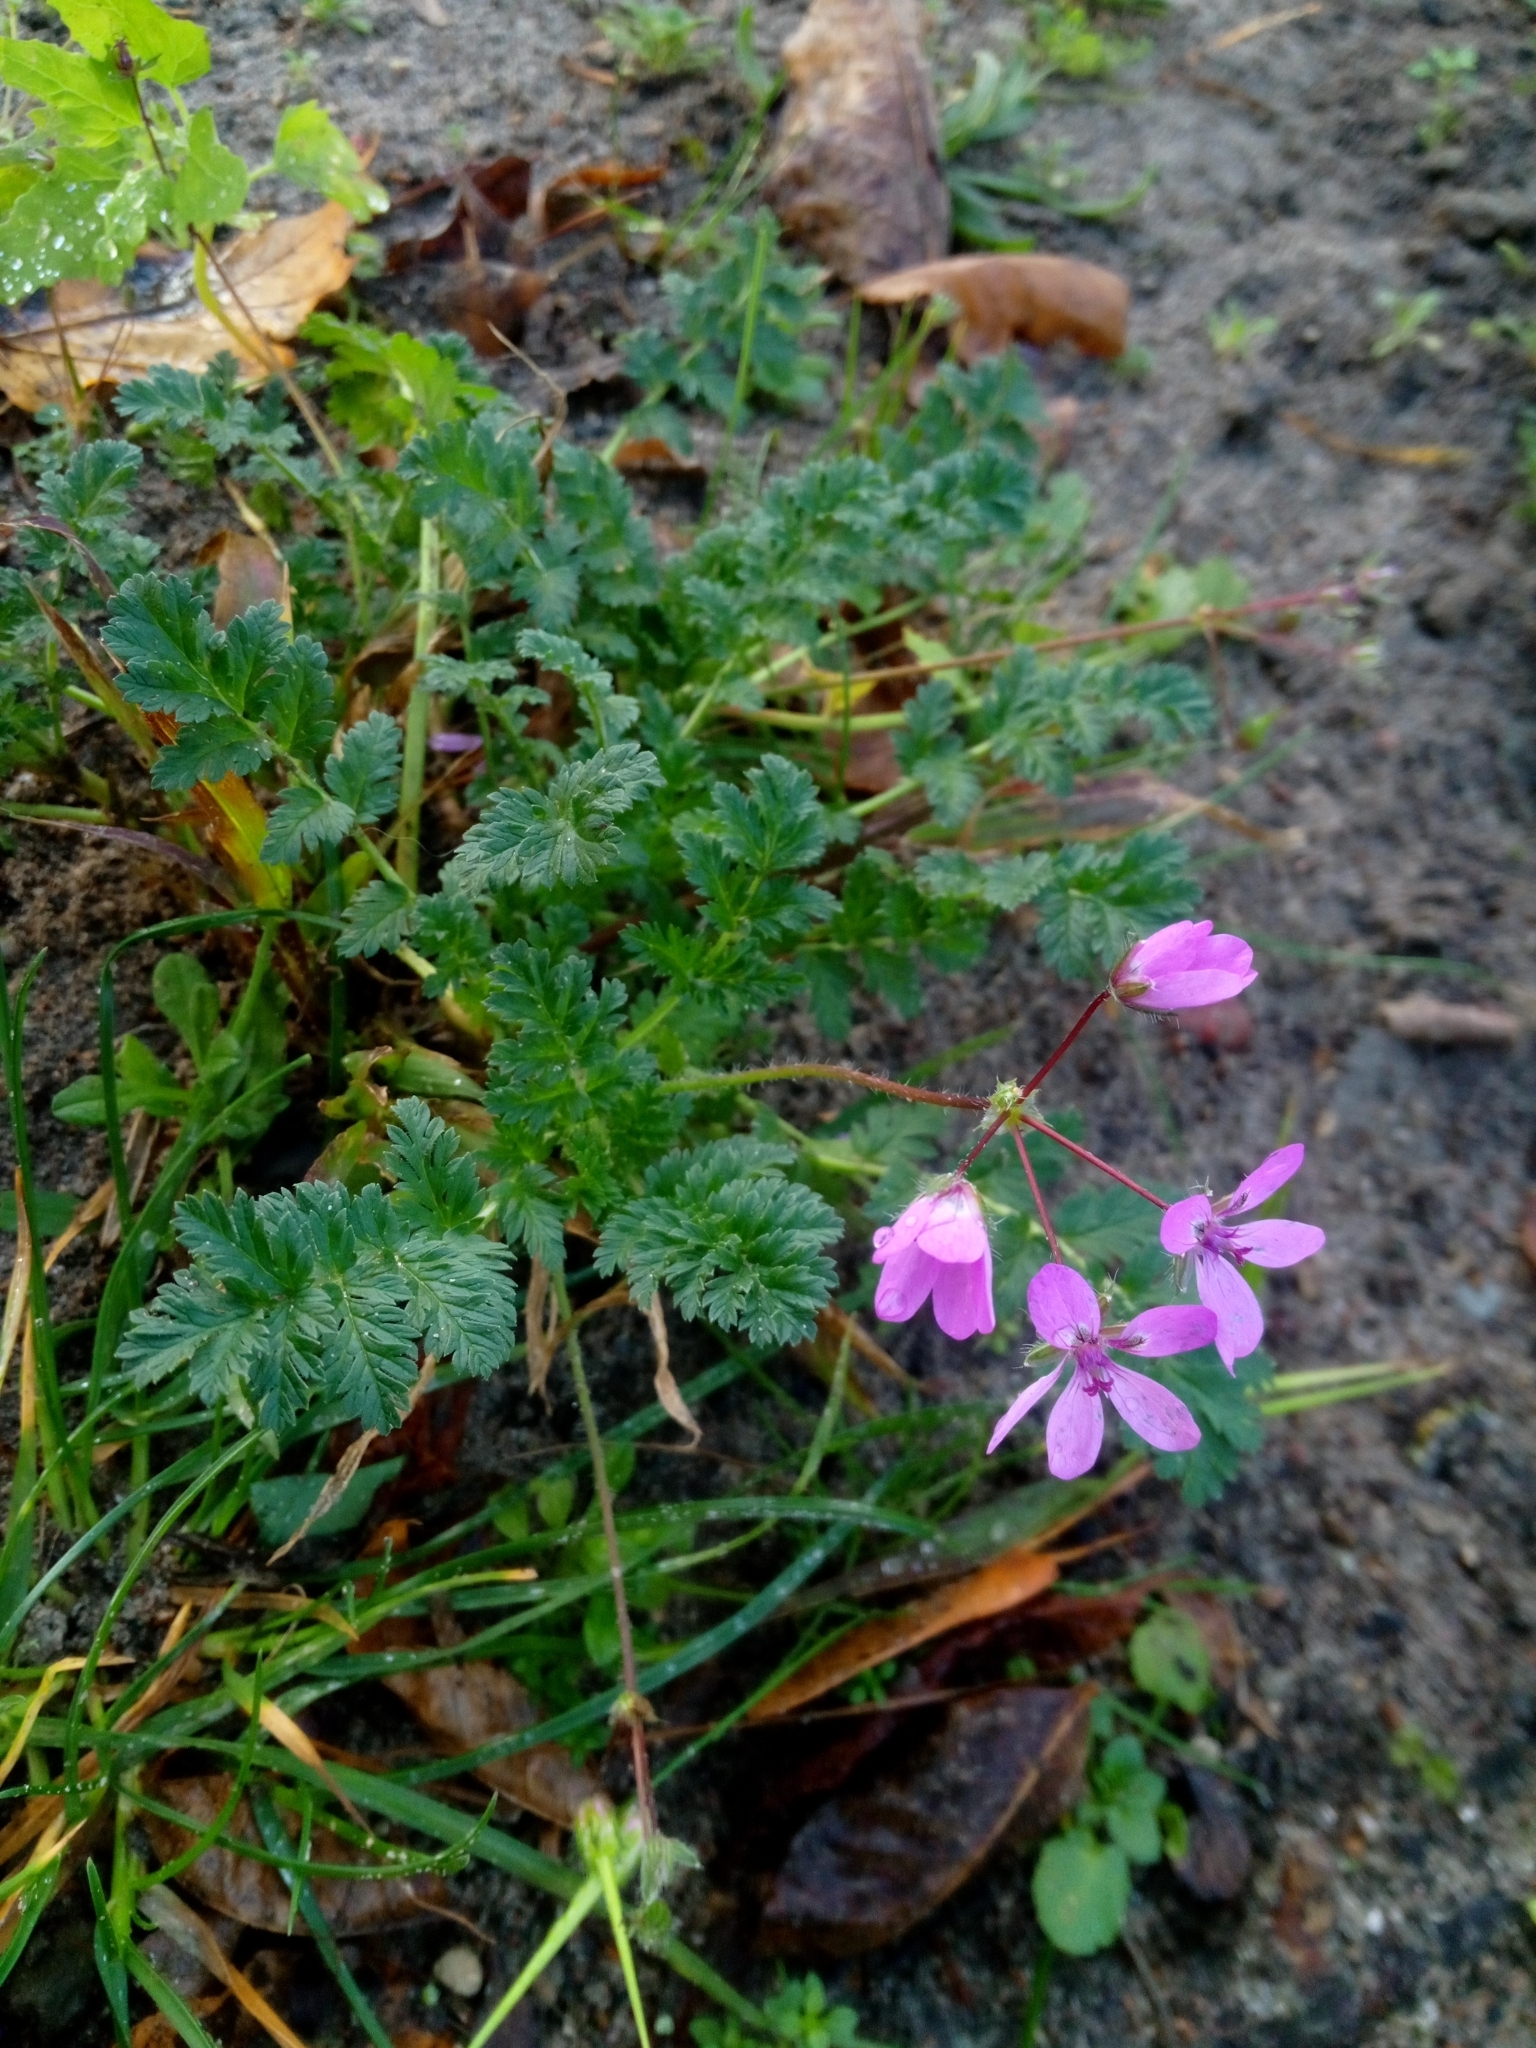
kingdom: Plantae
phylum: Tracheophyta
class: Magnoliopsida
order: Geraniales
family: Geraniaceae
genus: Erodium
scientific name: Erodium cicutarium
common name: Common stork's-bill
